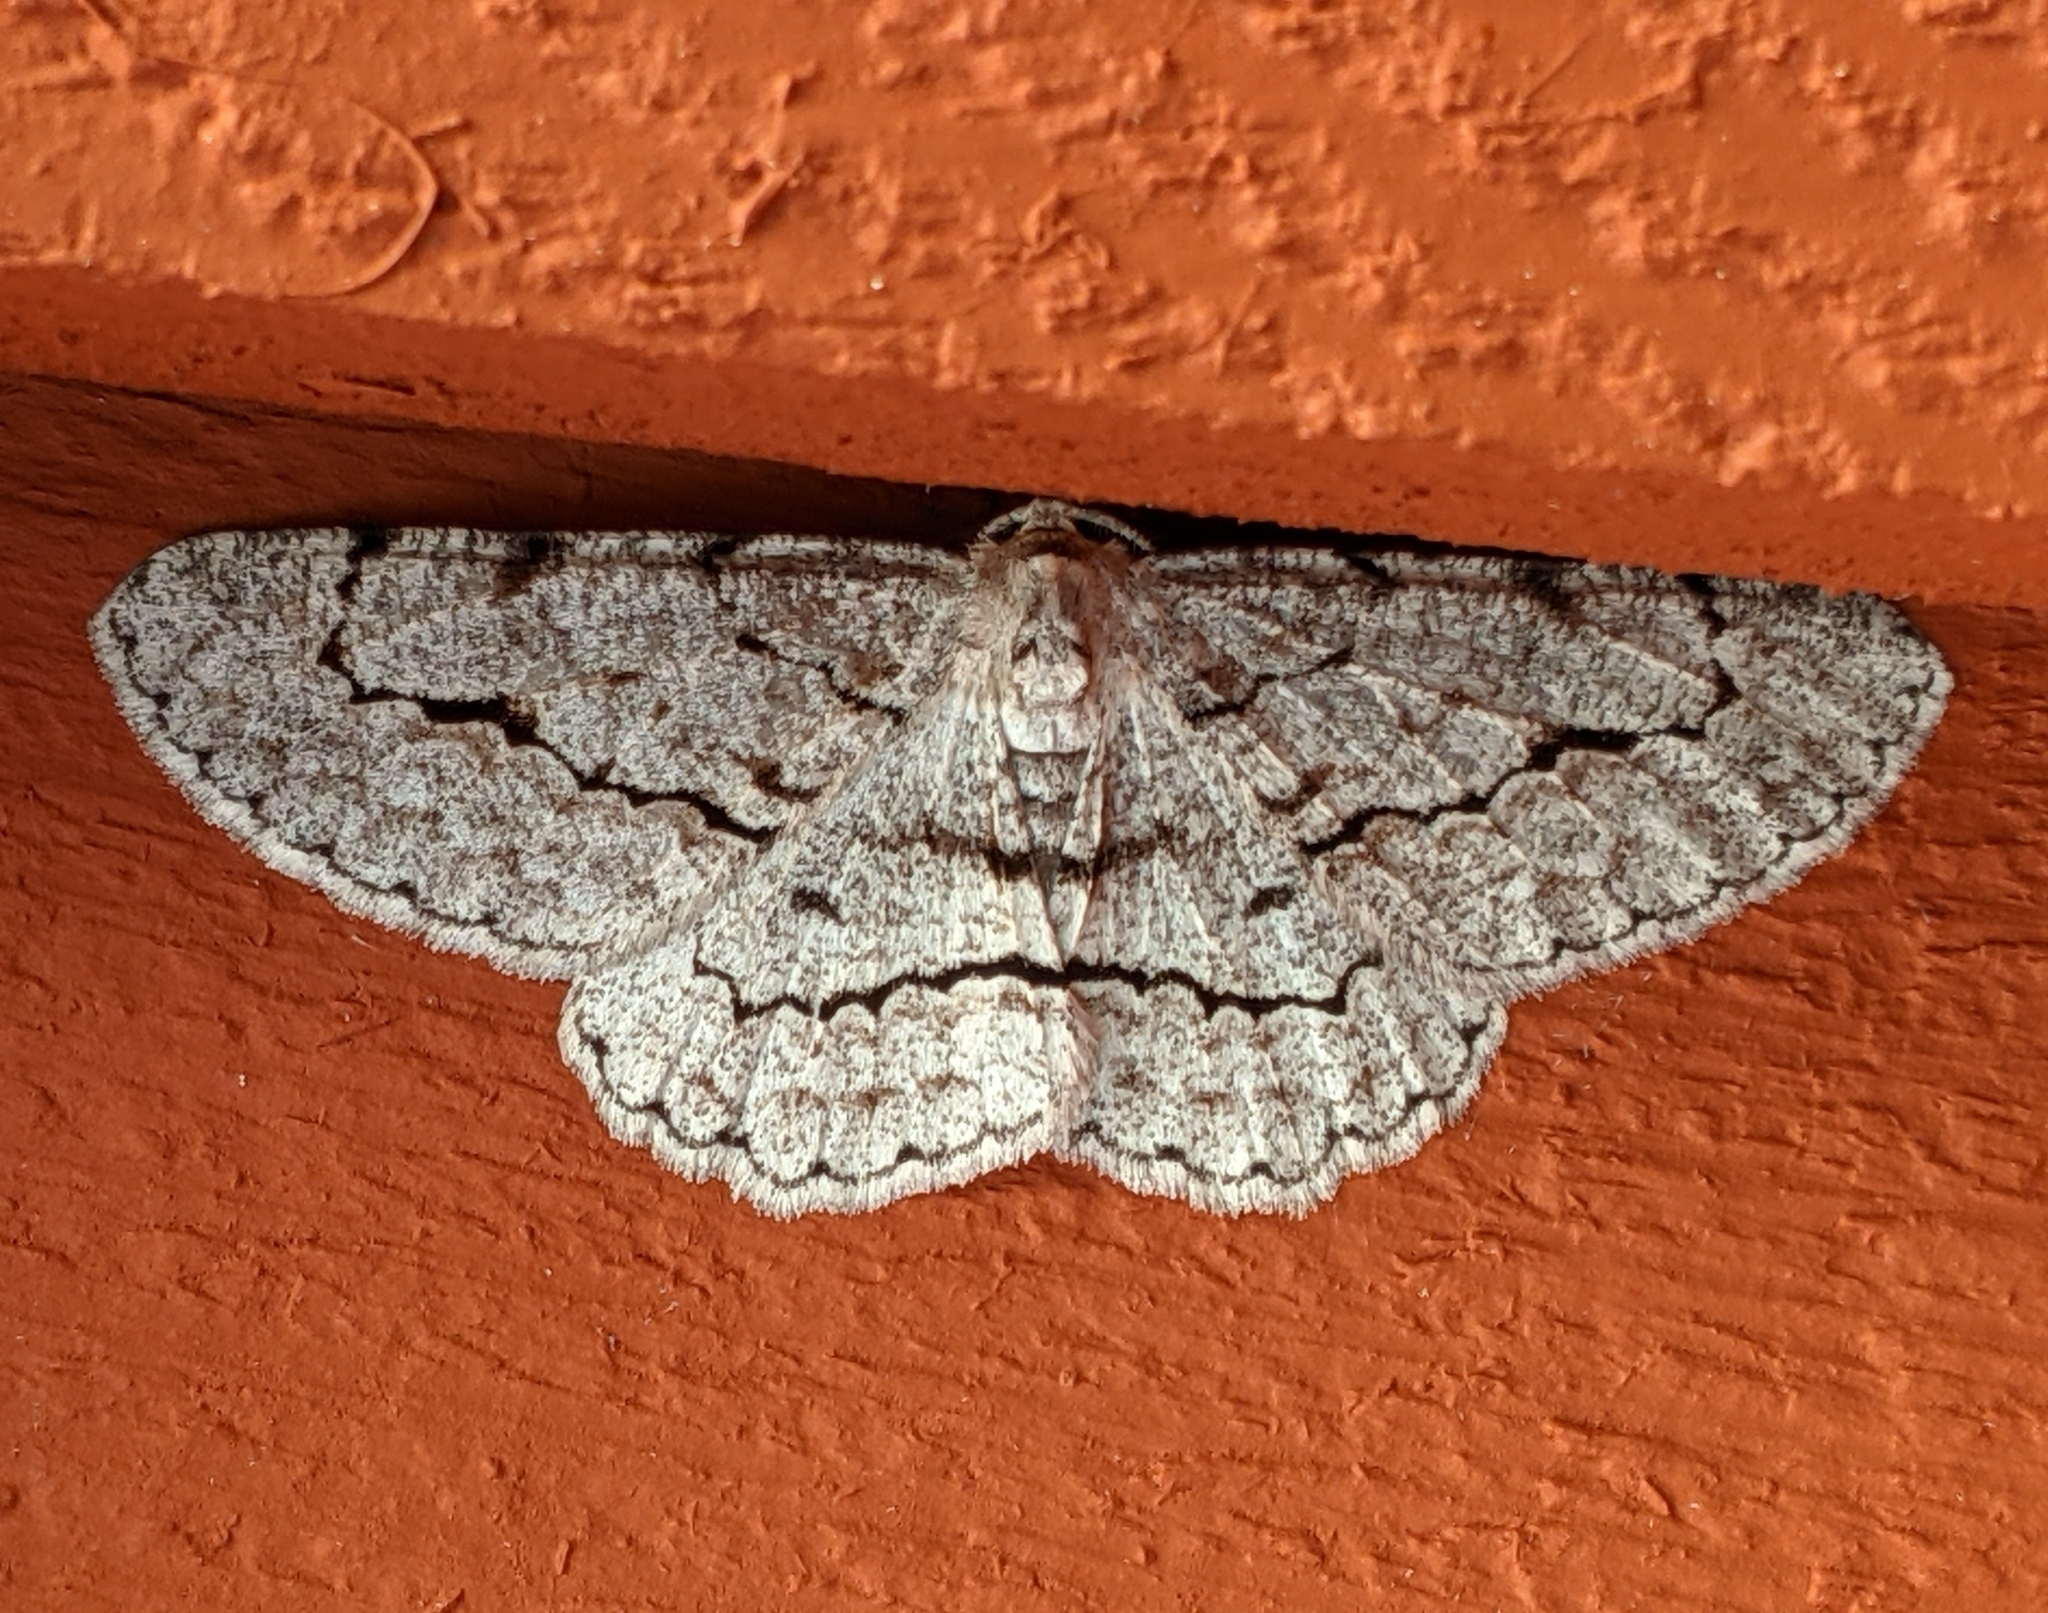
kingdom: Animalia
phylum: Arthropoda
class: Insecta
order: Lepidoptera
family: Geometridae
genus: Stenoporpia
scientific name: Stenoporpia pulmonaria
